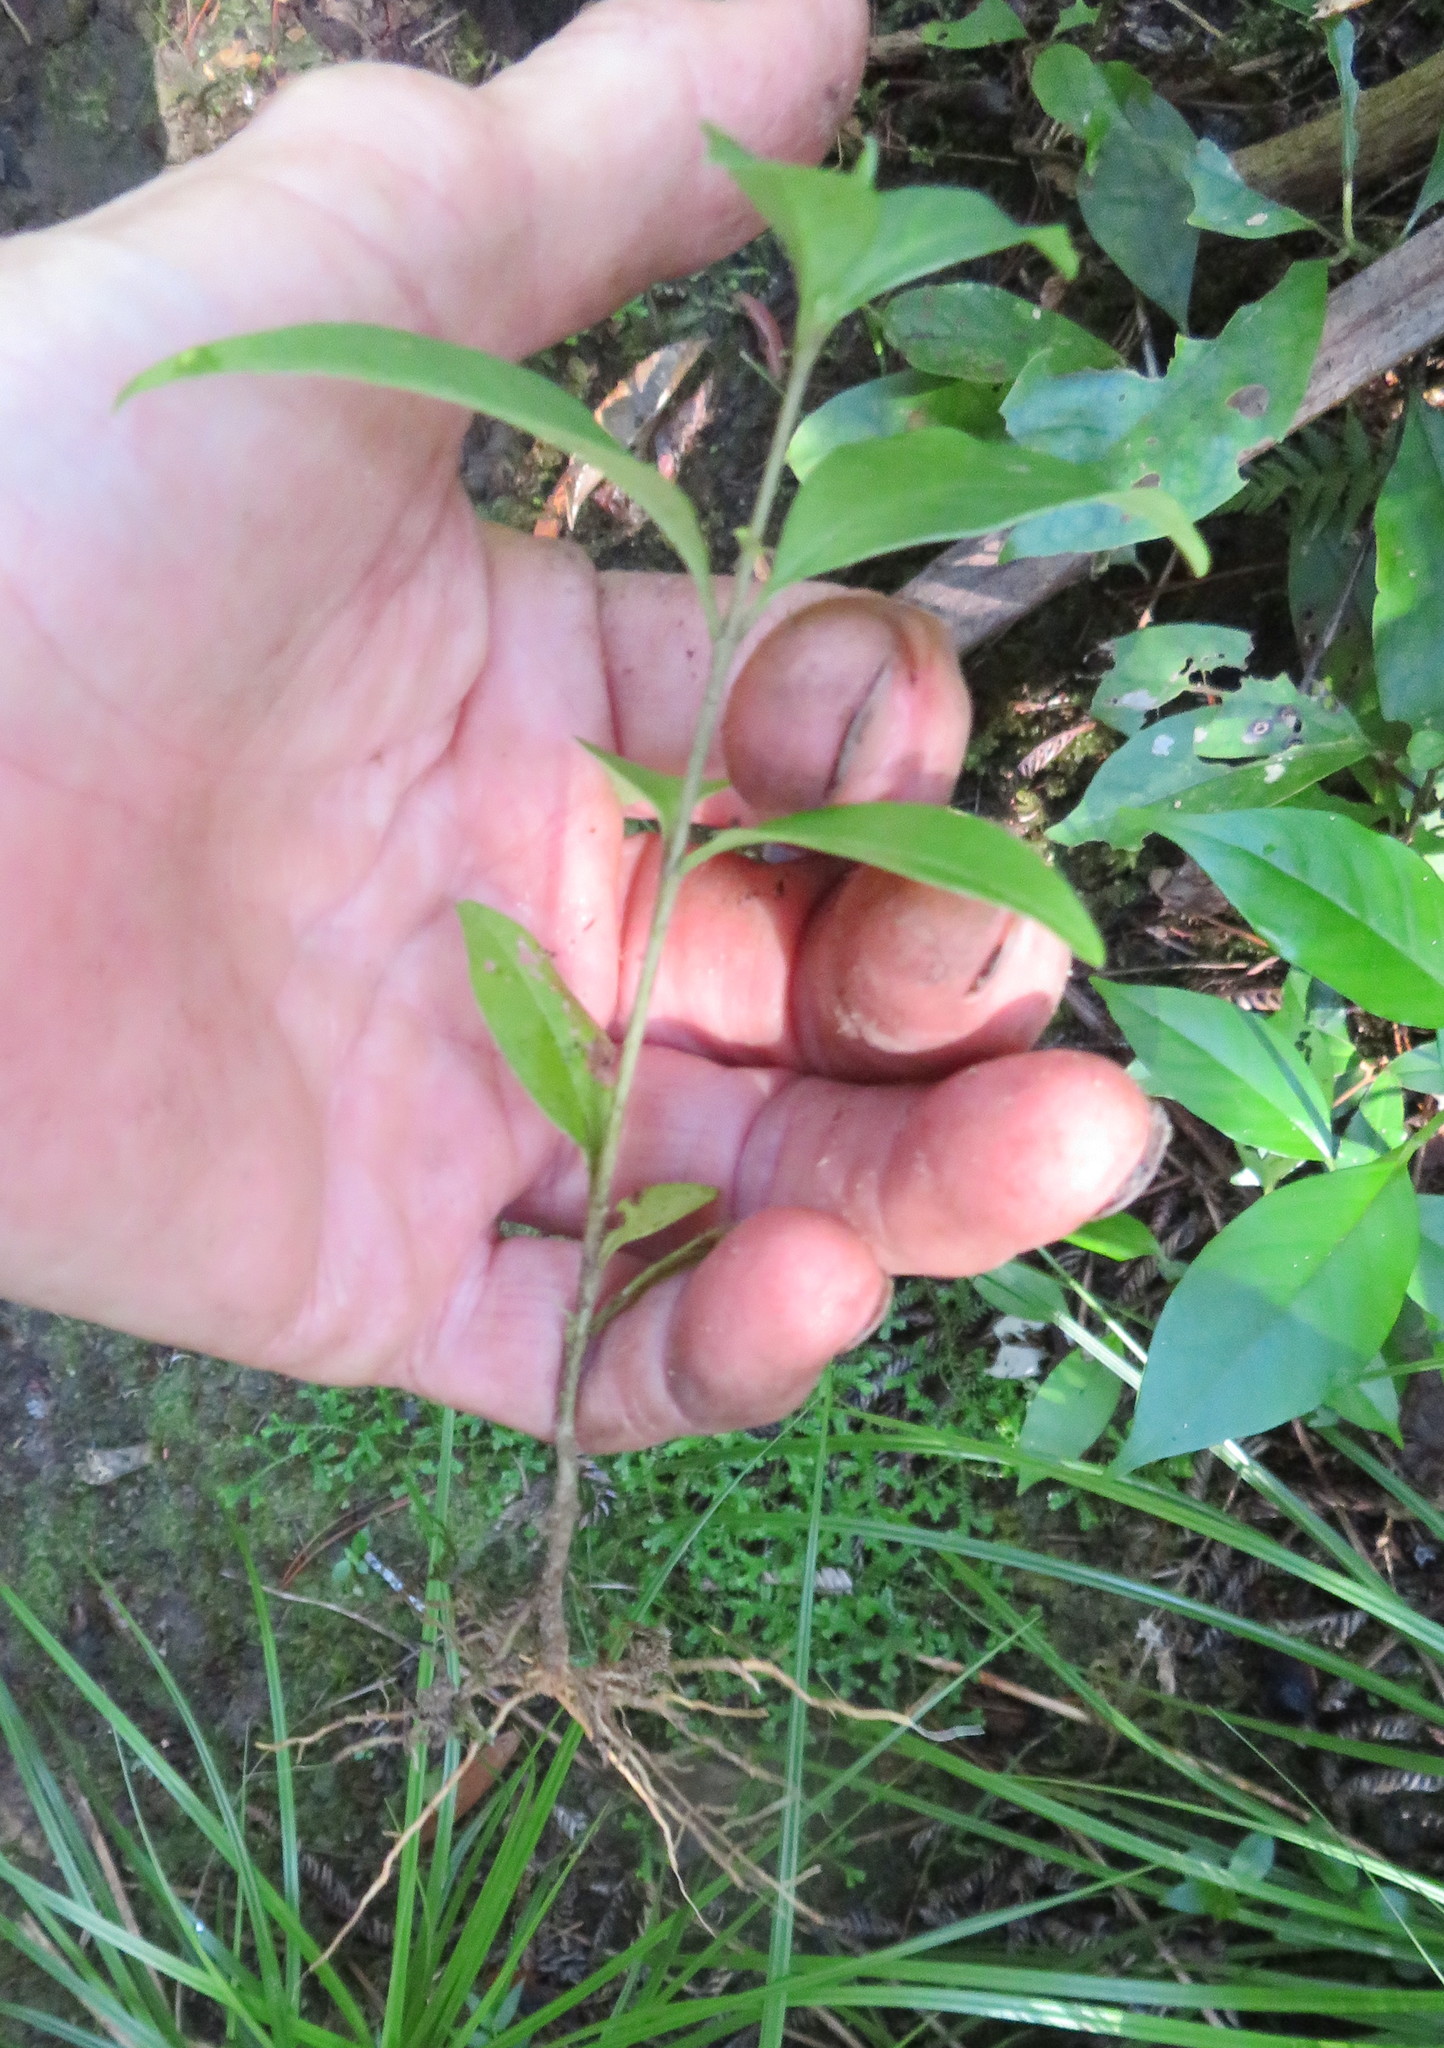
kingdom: Plantae
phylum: Tracheophyta
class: Magnoliopsida
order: Lamiales
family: Oleaceae
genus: Ligustrum
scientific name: Ligustrum lucidum
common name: Glossy privet
